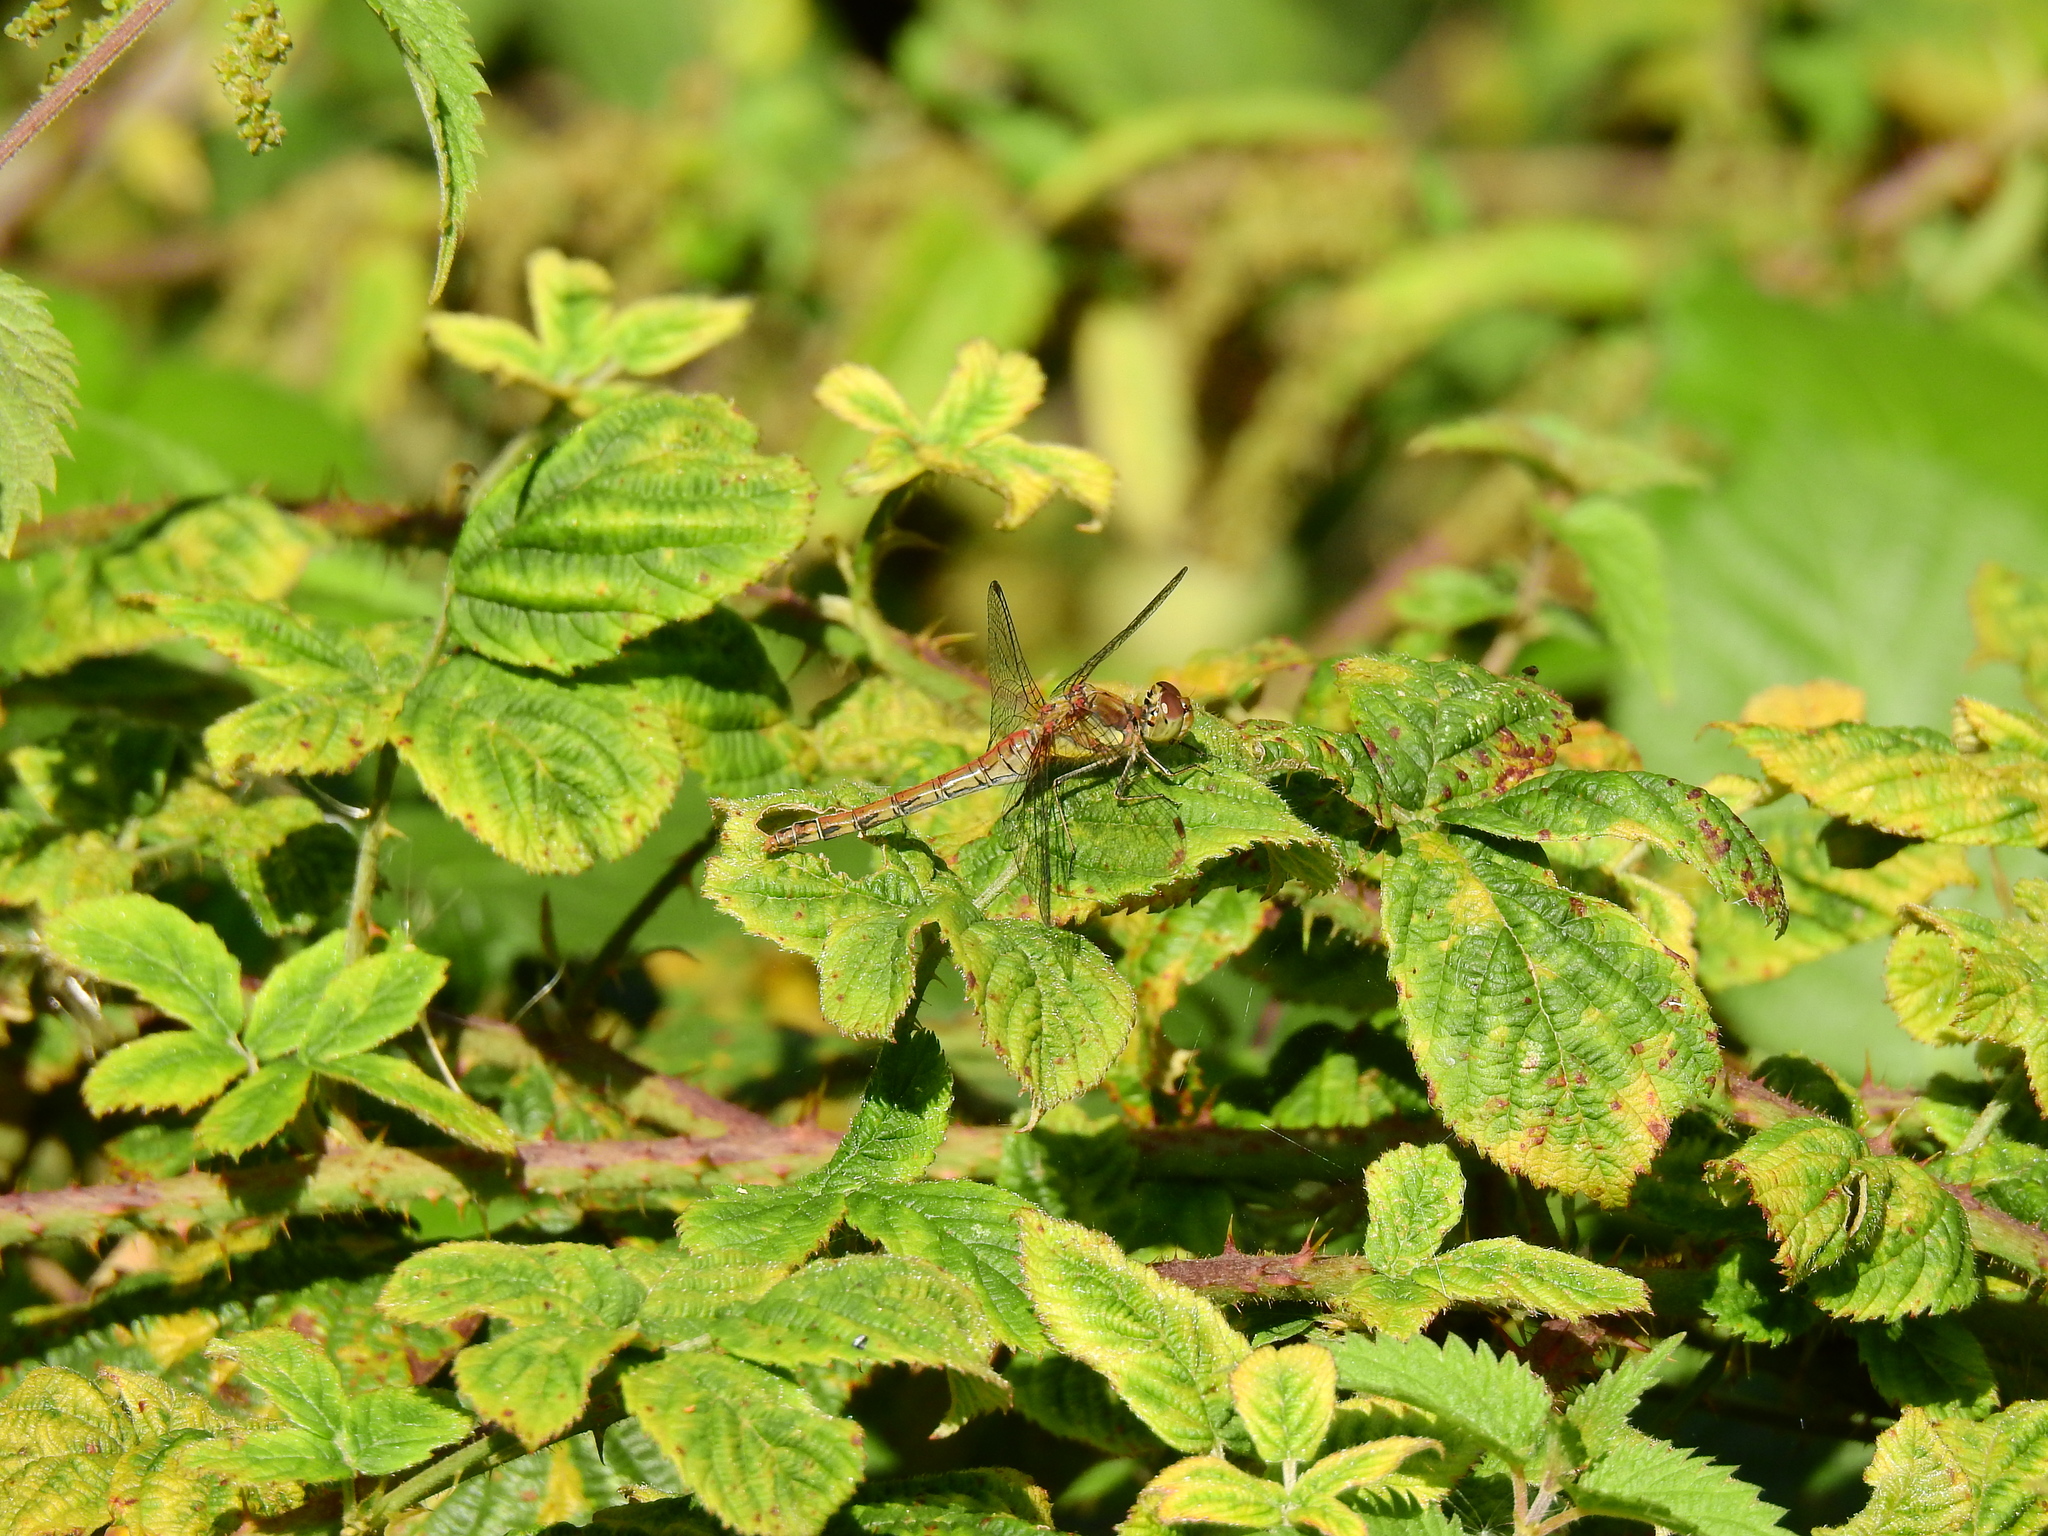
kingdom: Animalia
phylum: Arthropoda
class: Insecta
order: Odonata
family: Libellulidae
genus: Sympetrum
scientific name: Sympetrum striolatum
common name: Common darter
